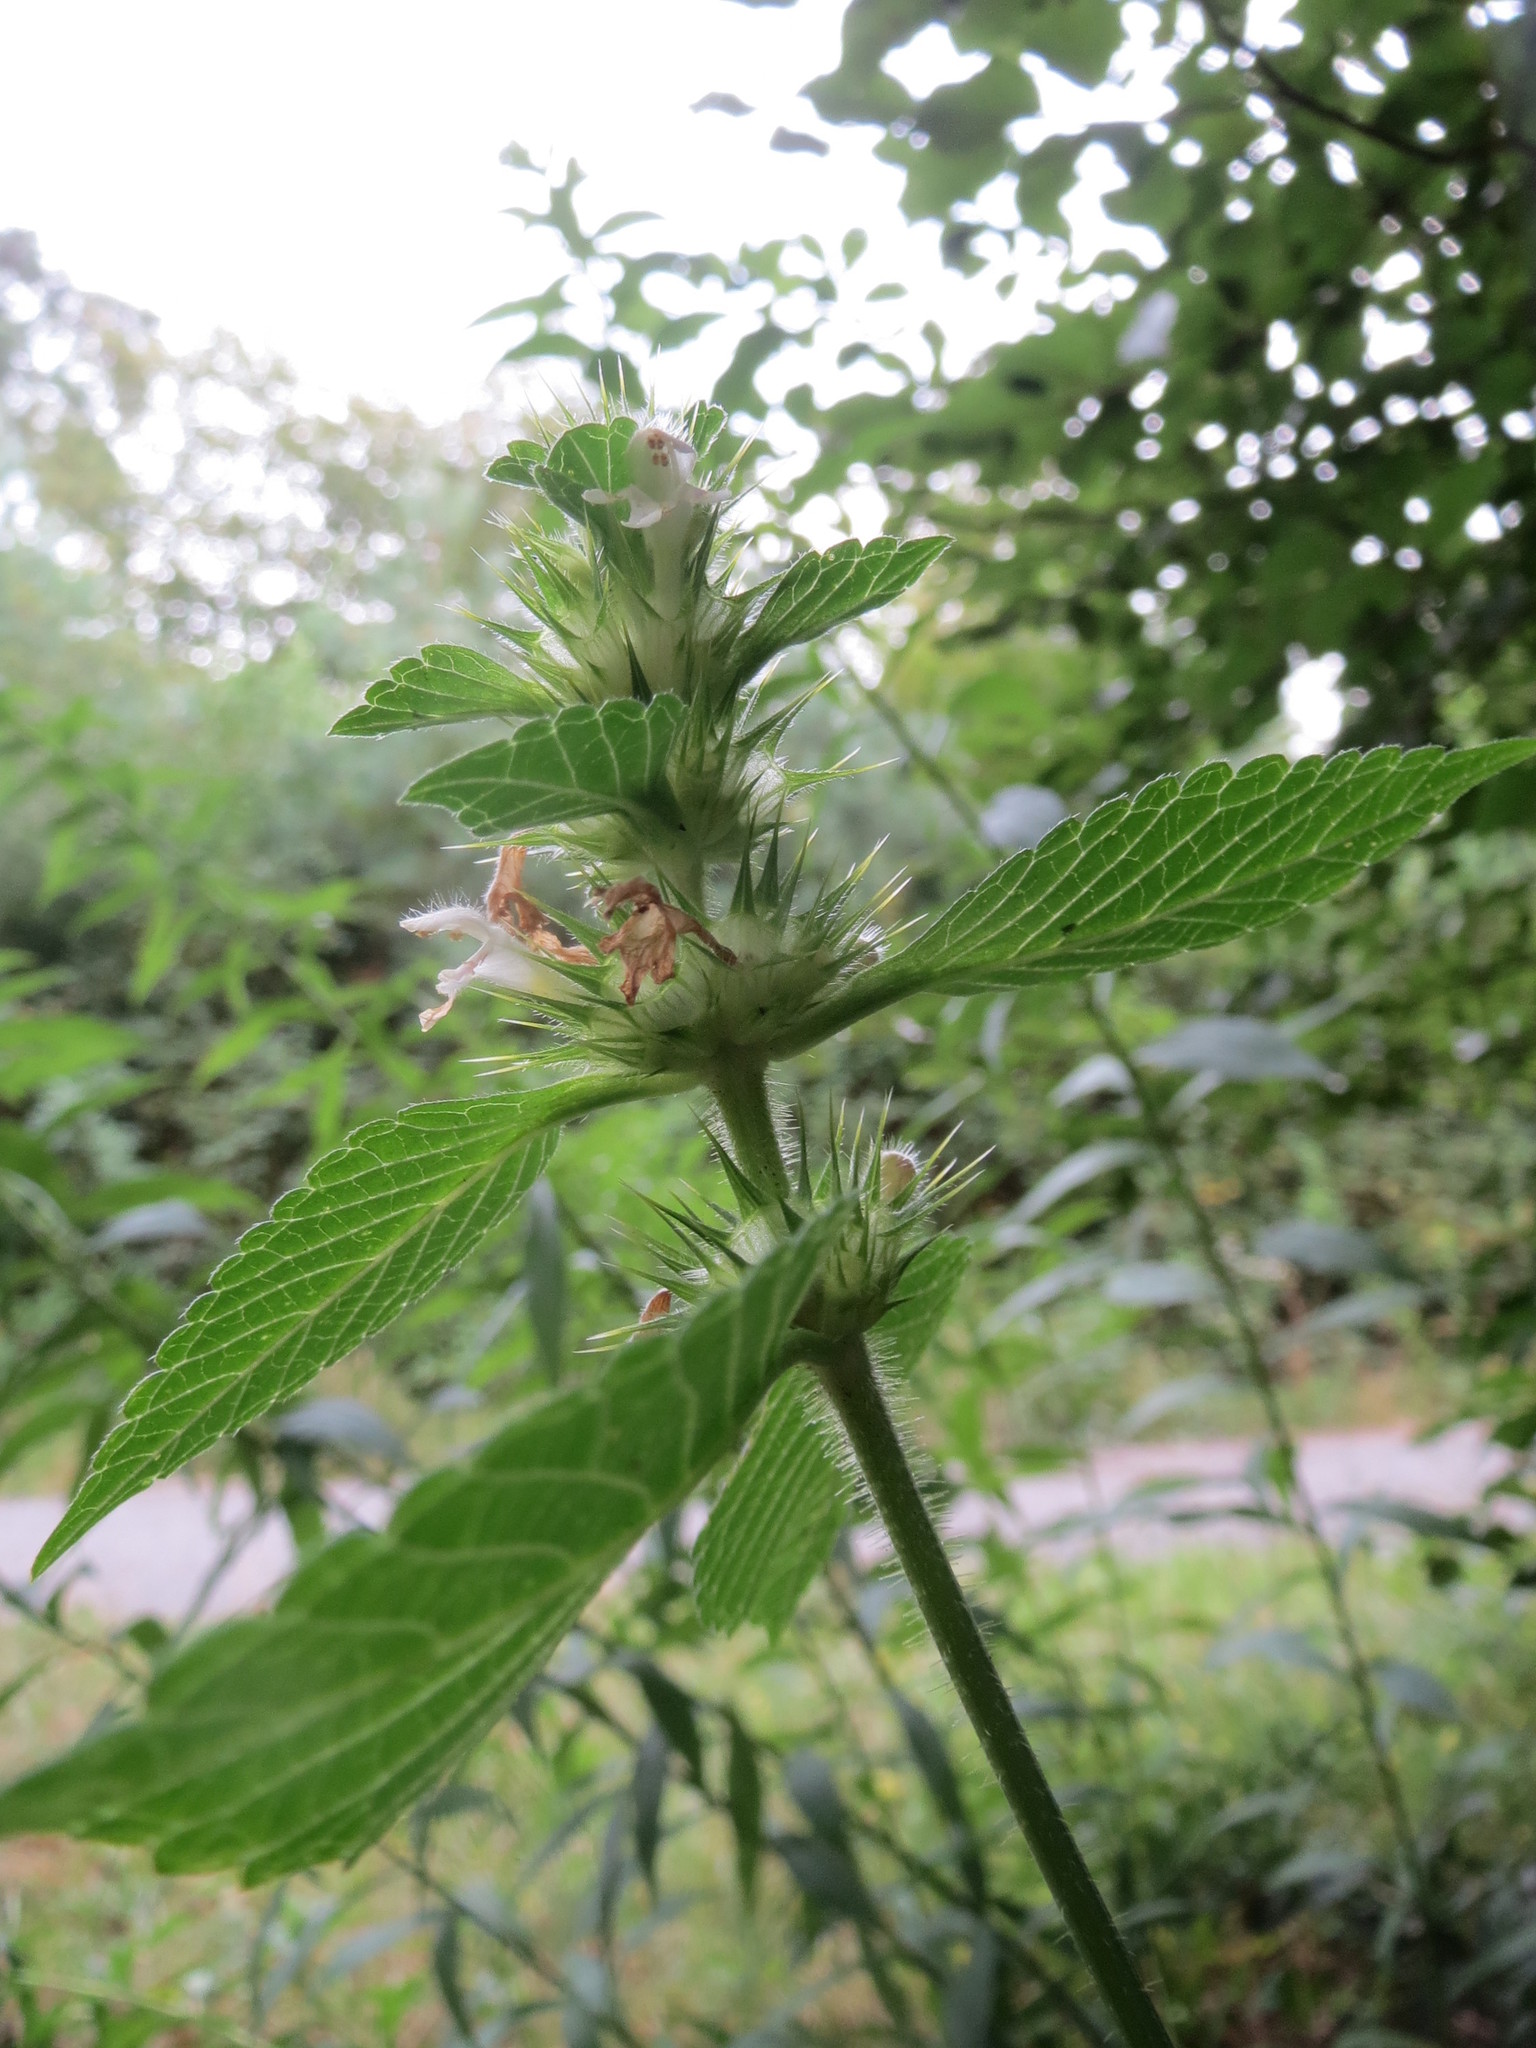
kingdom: Plantae
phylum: Tracheophyta
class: Magnoliopsida
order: Lamiales
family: Lamiaceae
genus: Galeopsis
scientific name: Galeopsis tetrahit
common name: Common hemp-nettle
